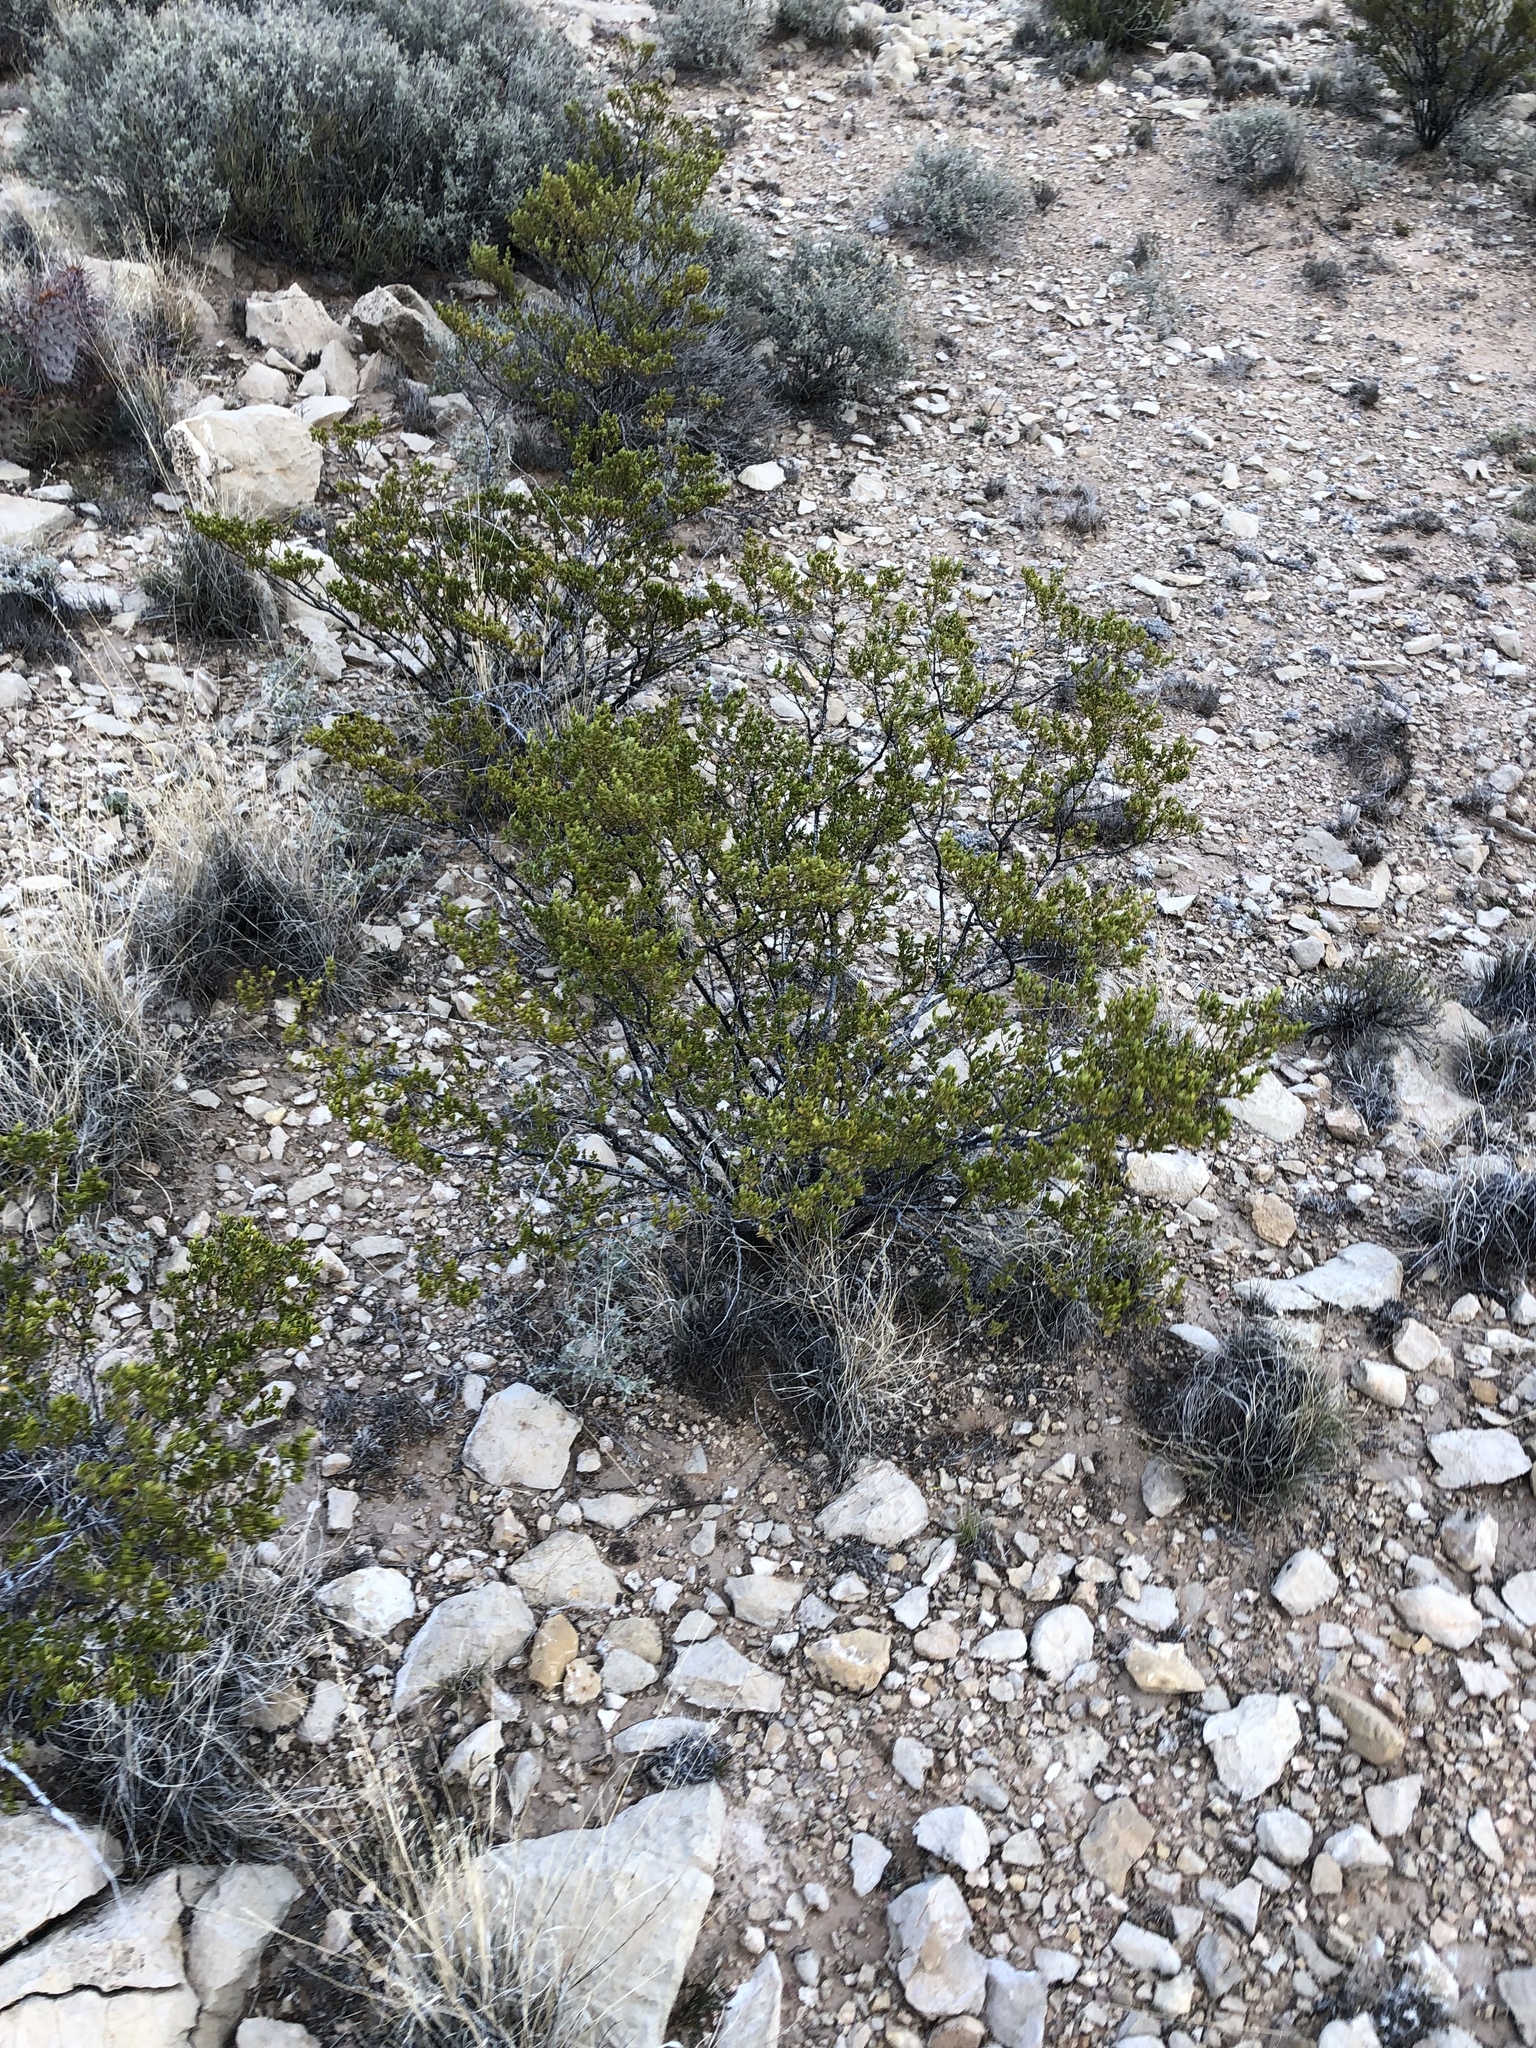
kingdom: Plantae
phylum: Tracheophyta
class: Magnoliopsida
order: Zygophyllales
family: Zygophyllaceae
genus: Larrea
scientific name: Larrea tridentata
